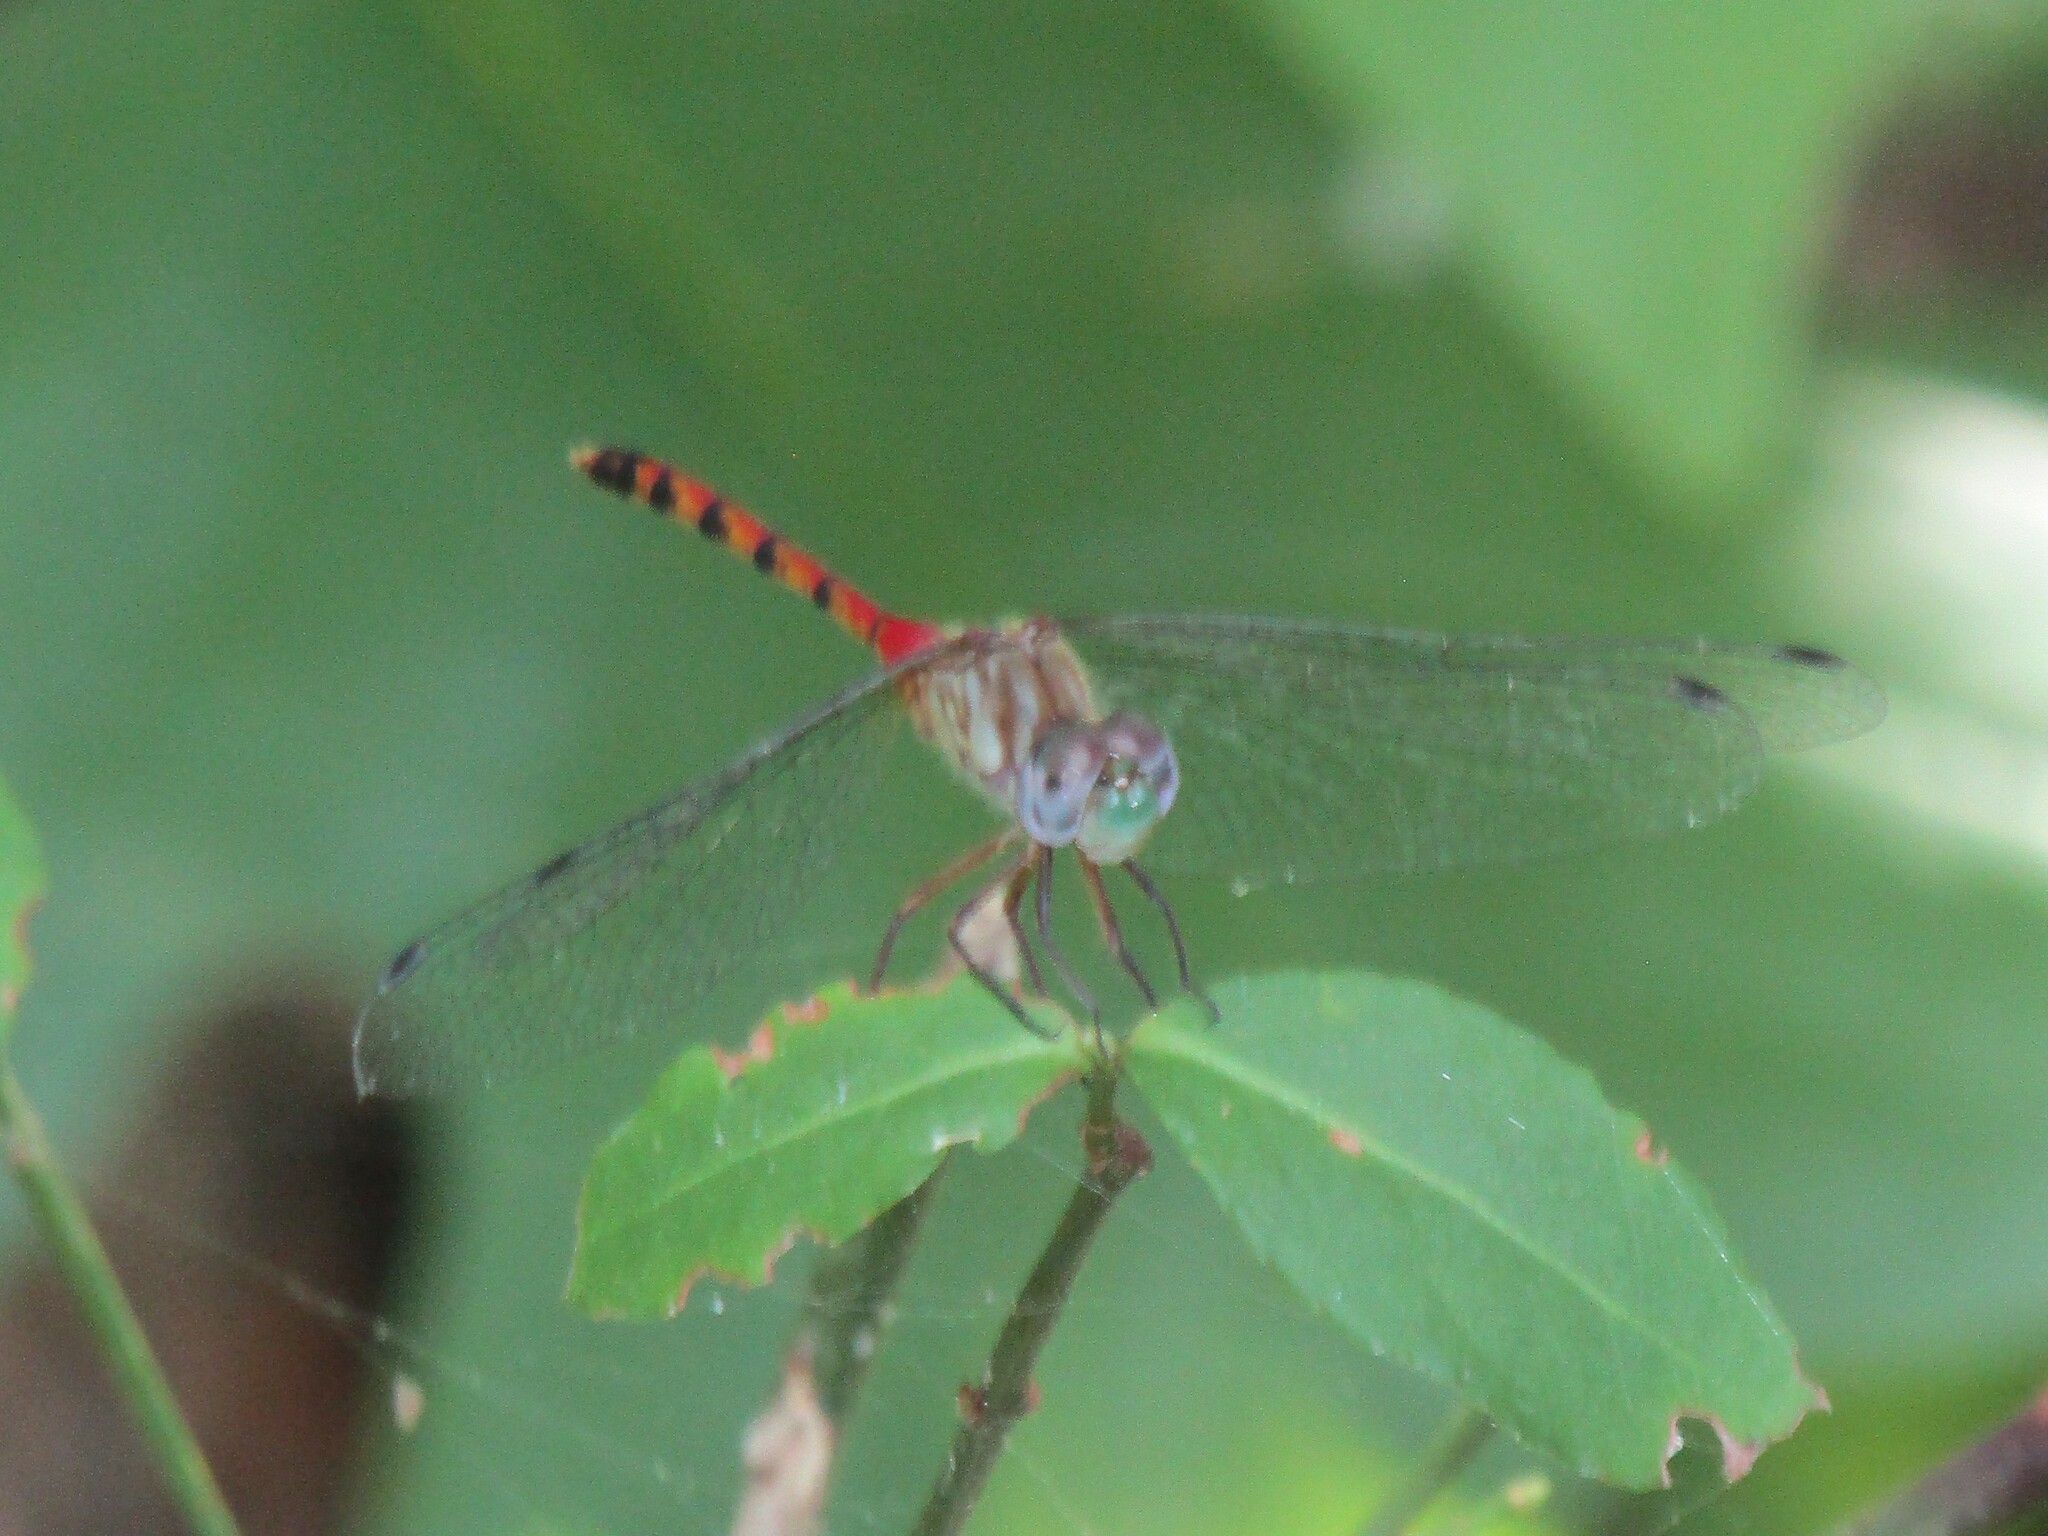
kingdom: Animalia
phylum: Arthropoda
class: Insecta
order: Odonata
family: Libellulidae
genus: Sympetrum
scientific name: Sympetrum ambiguum
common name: Blue-faced meadowhawk
